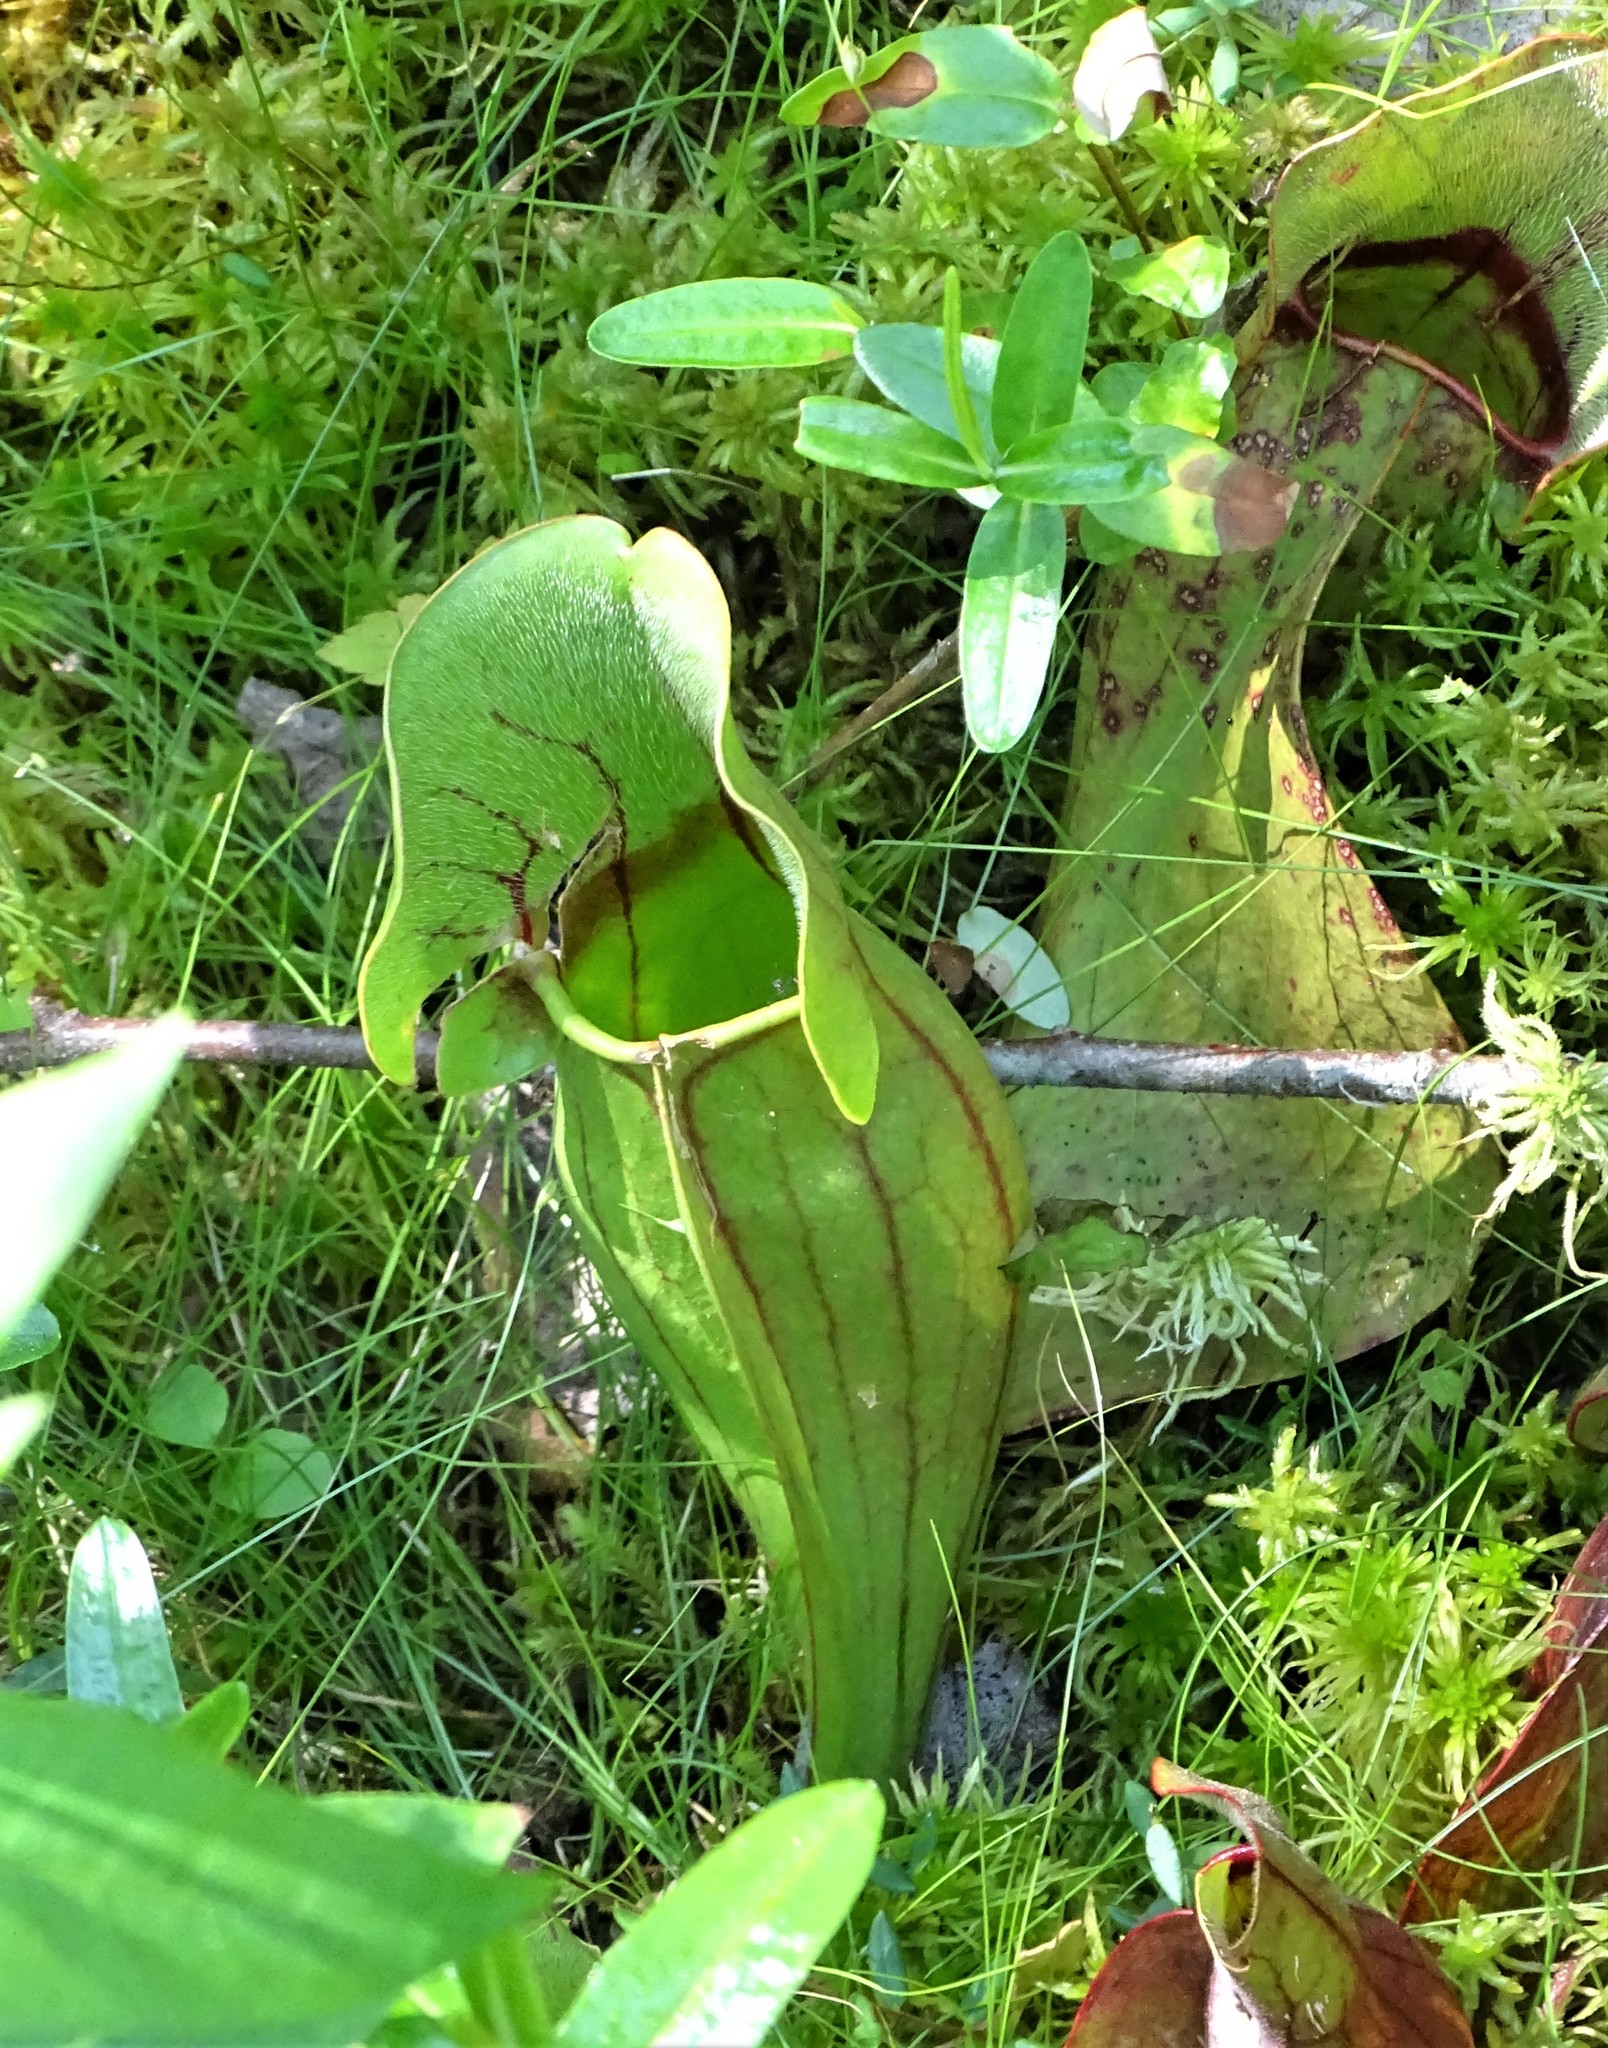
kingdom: Plantae
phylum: Tracheophyta
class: Magnoliopsida
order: Ericales
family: Sarraceniaceae
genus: Sarracenia
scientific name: Sarracenia purpurea
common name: Pitcherplant
